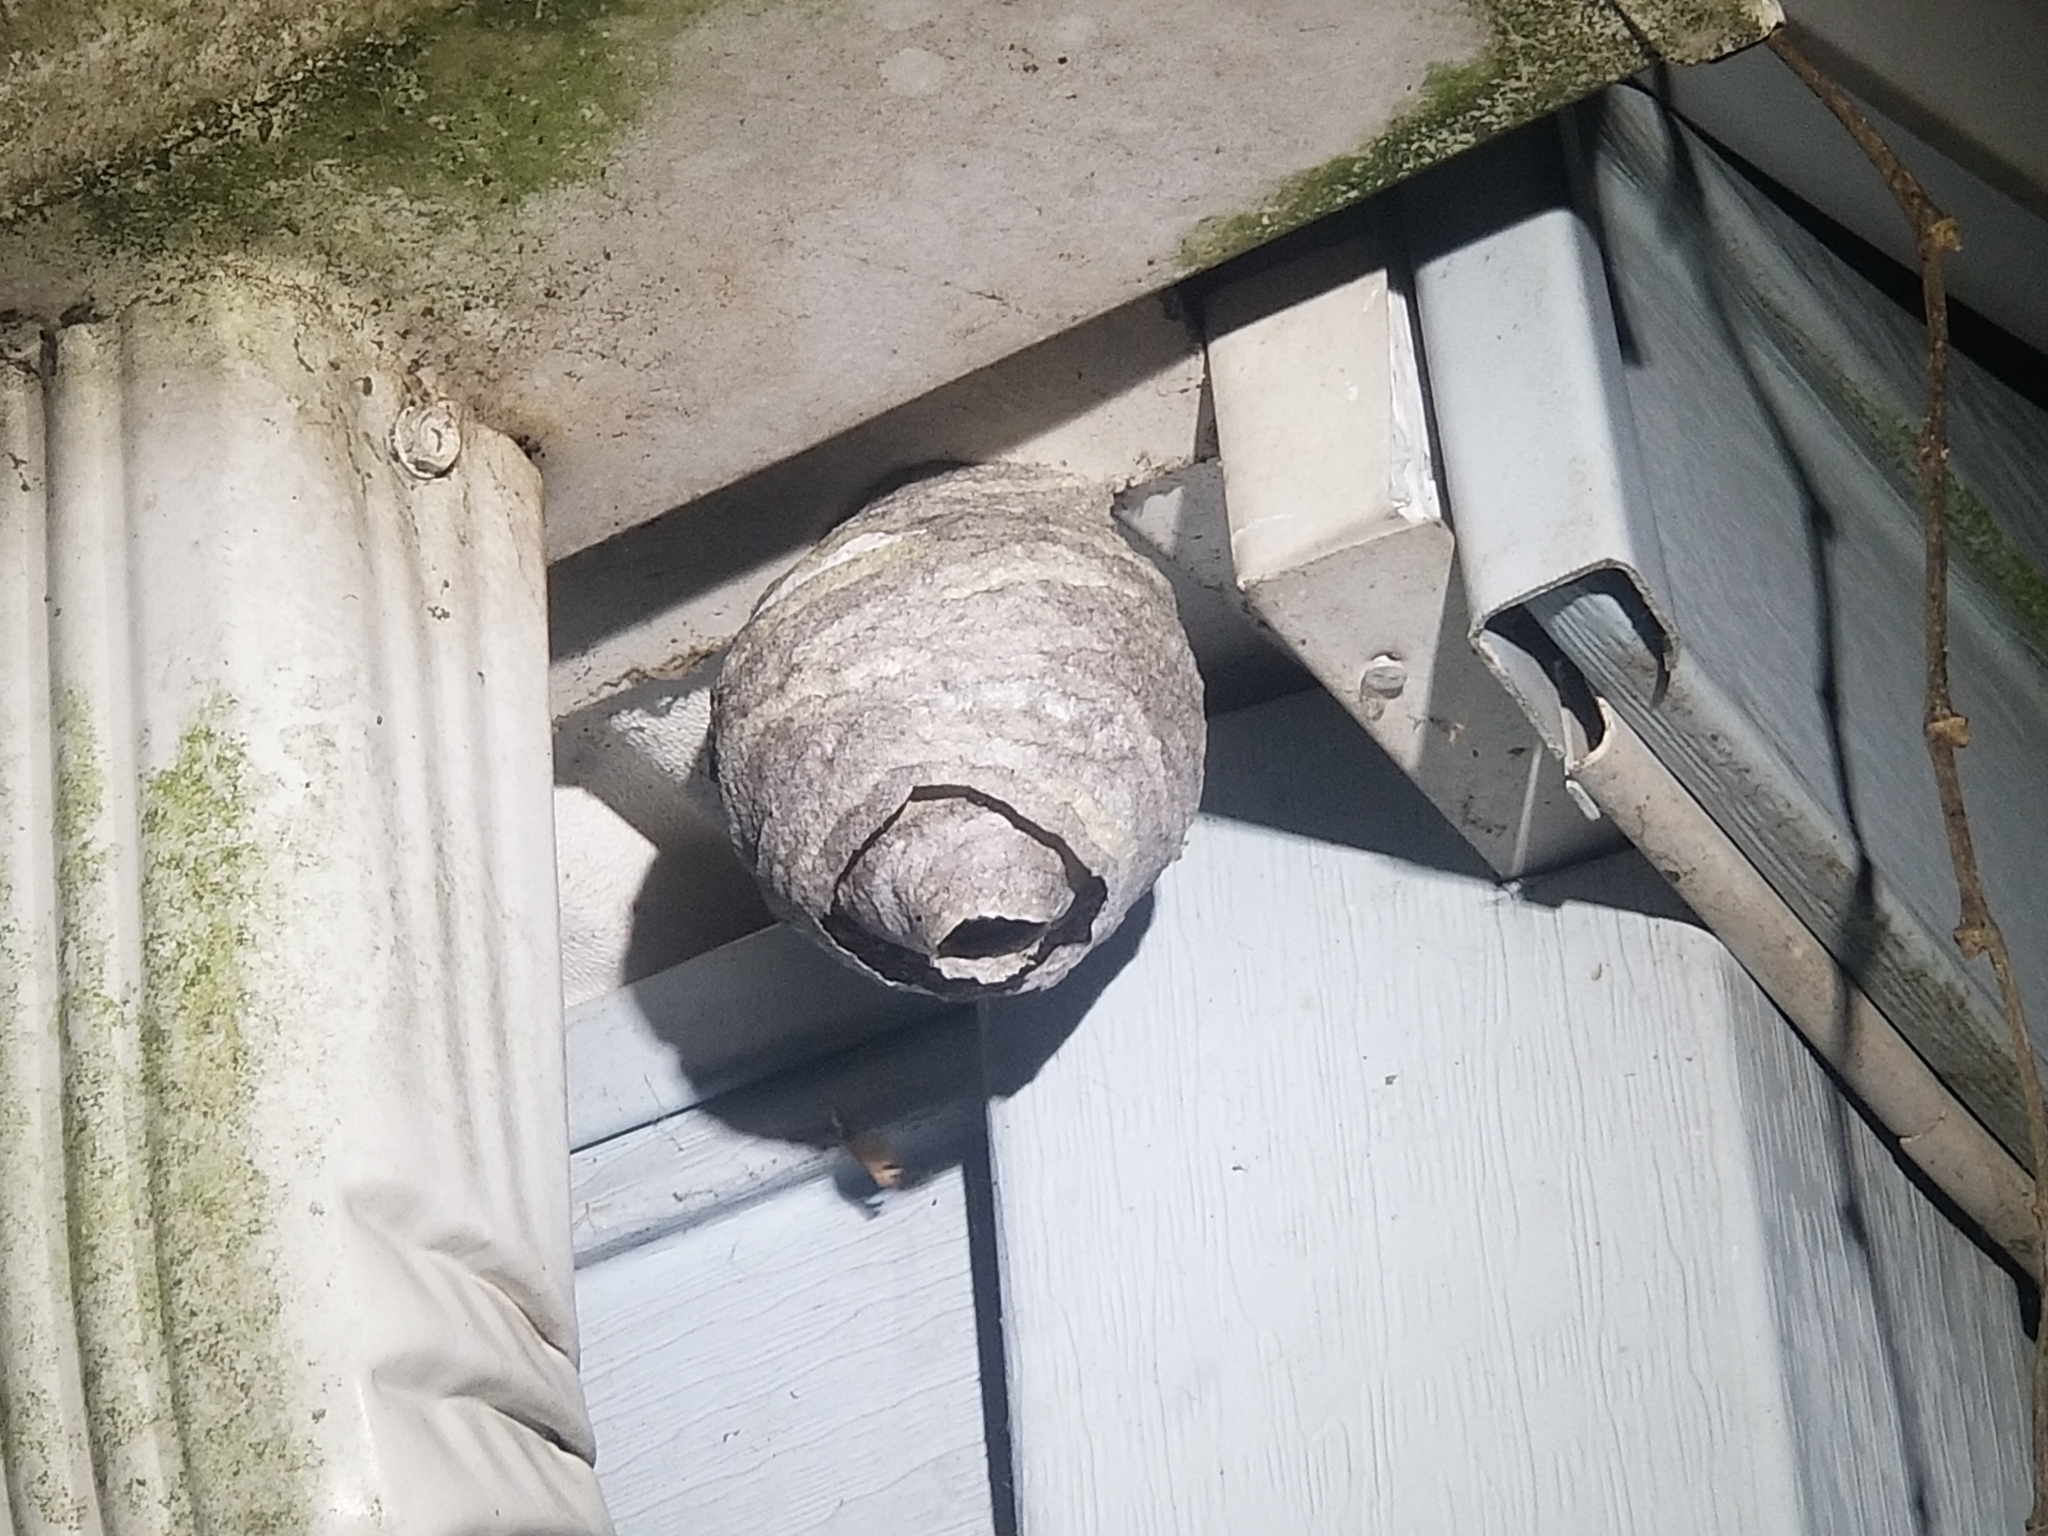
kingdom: Animalia
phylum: Arthropoda
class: Insecta
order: Hymenoptera
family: Vespidae
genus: Dolichovespula
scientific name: Dolichovespula
